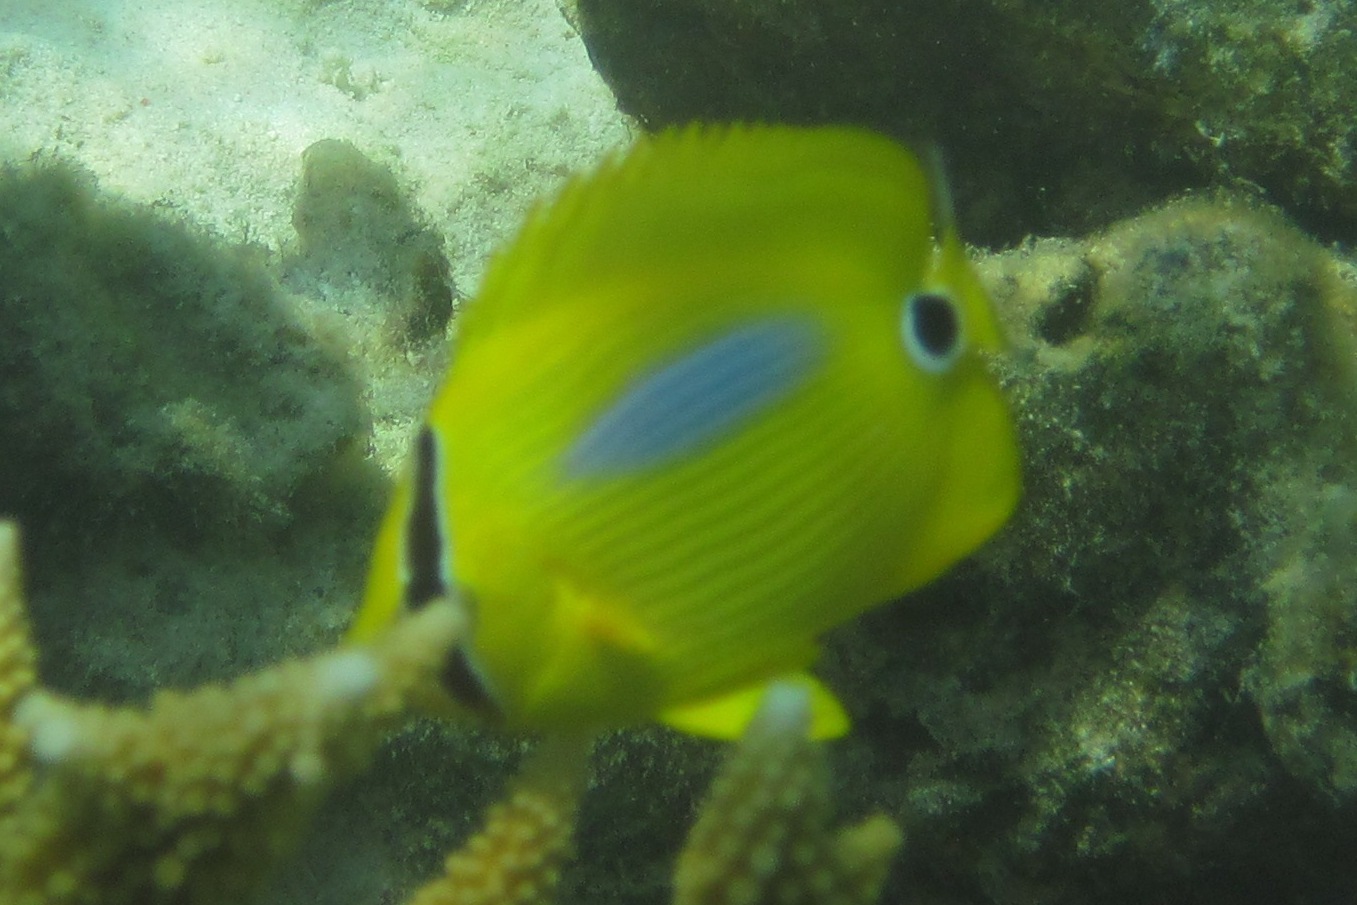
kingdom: Animalia
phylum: Chordata
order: Perciformes
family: Chaetodontidae
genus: Chaetodon
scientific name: Chaetodon plebeius
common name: Bluespot butterflyfish
